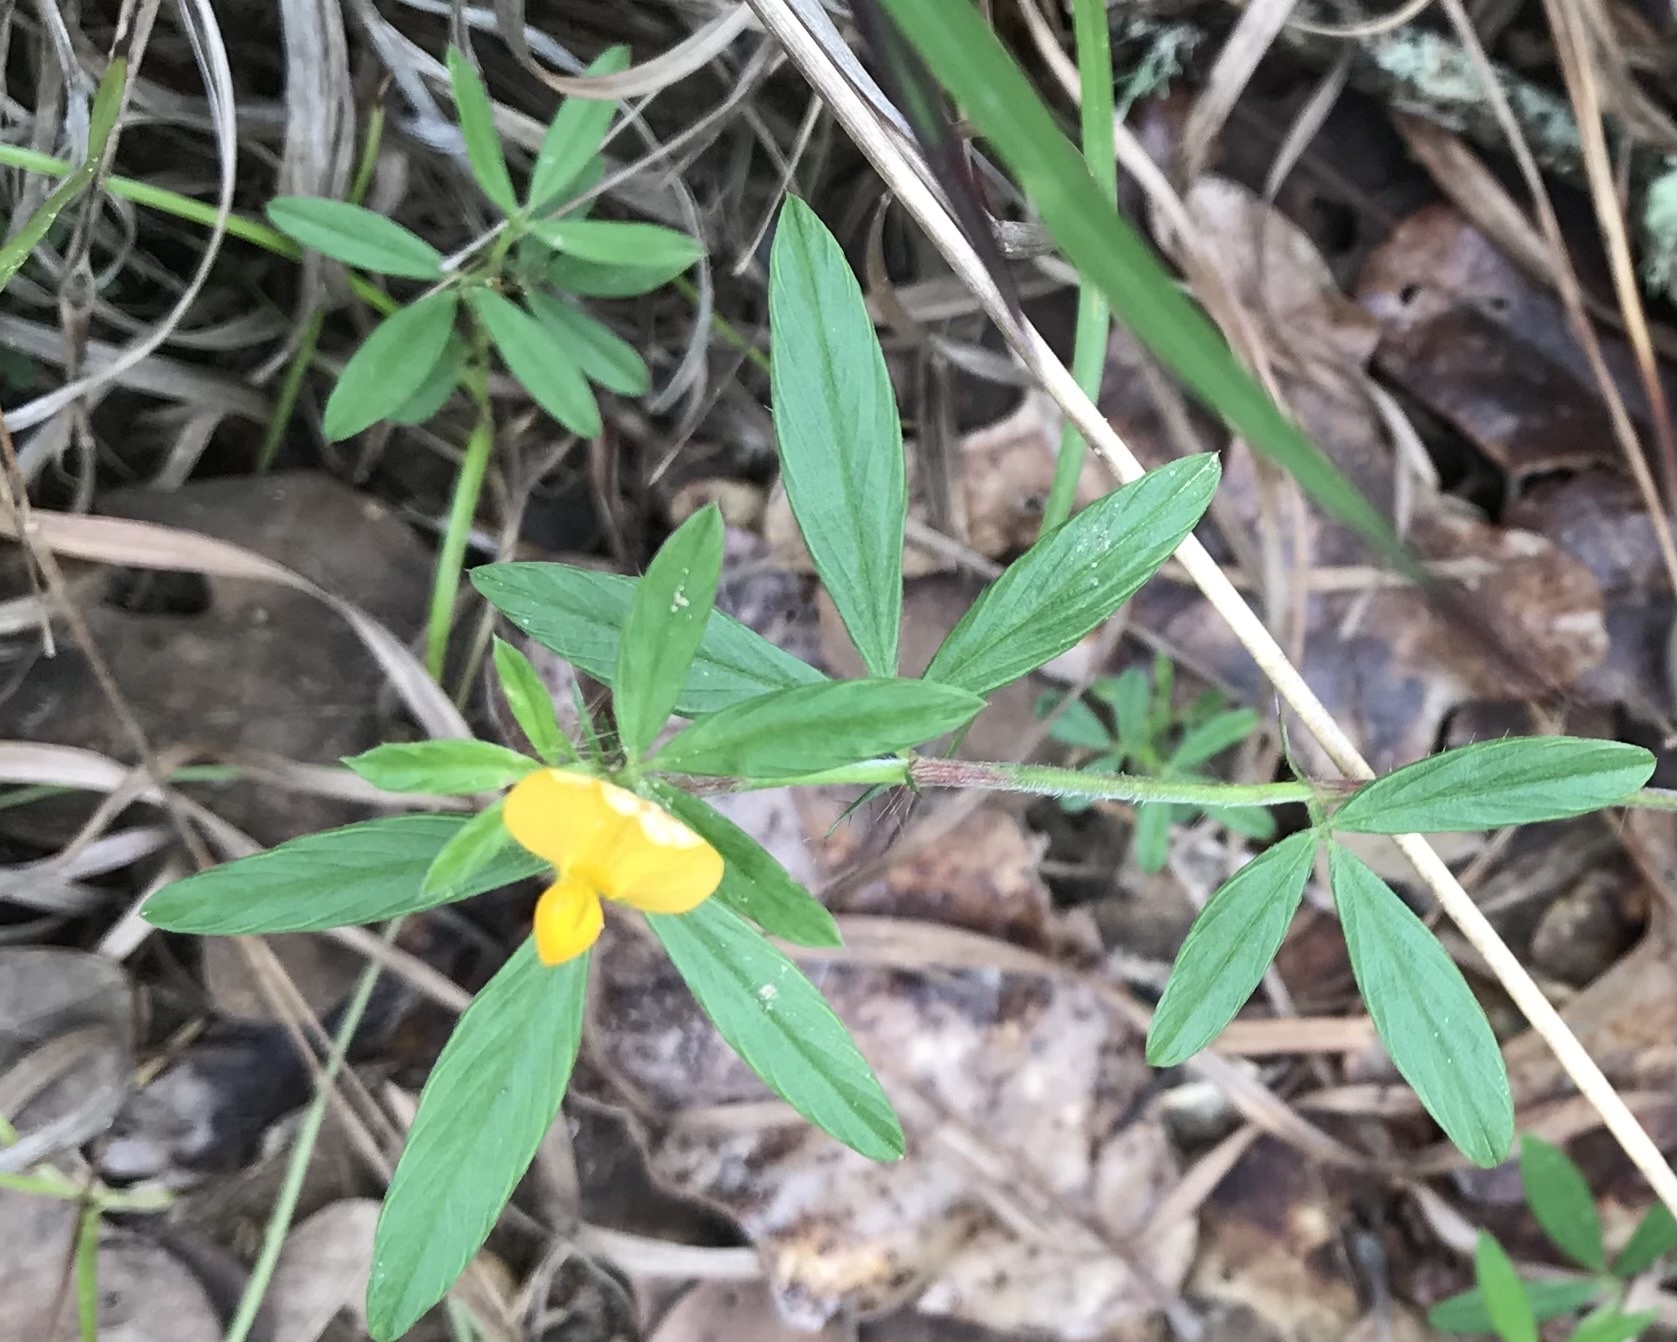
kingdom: Plantae
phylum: Tracheophyta
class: Magnoliopsida
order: Fabales
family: Fabaceae
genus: Stylosanthes
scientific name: Stylosanthes biflora
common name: Two-flower pencil-flower
